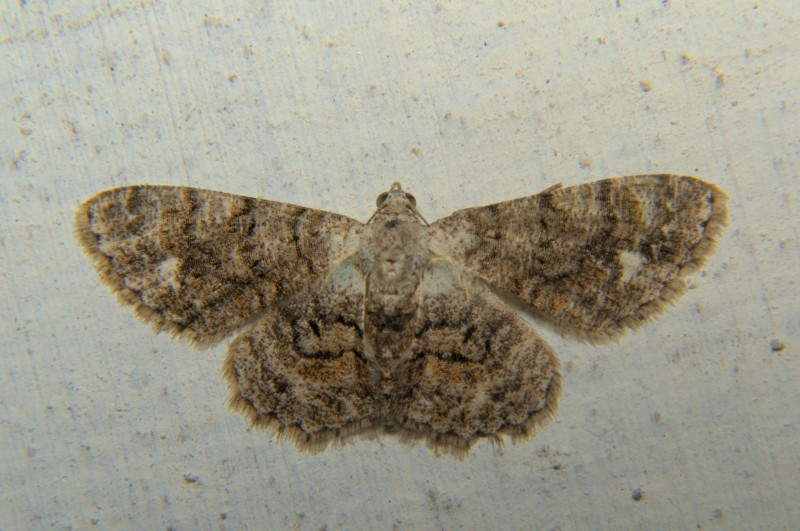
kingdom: Animalia
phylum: Arthropoda
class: Insecta
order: Lepidoptera
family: Geometridae
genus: Myrioblephara
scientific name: Myrioblephara idaeoides
